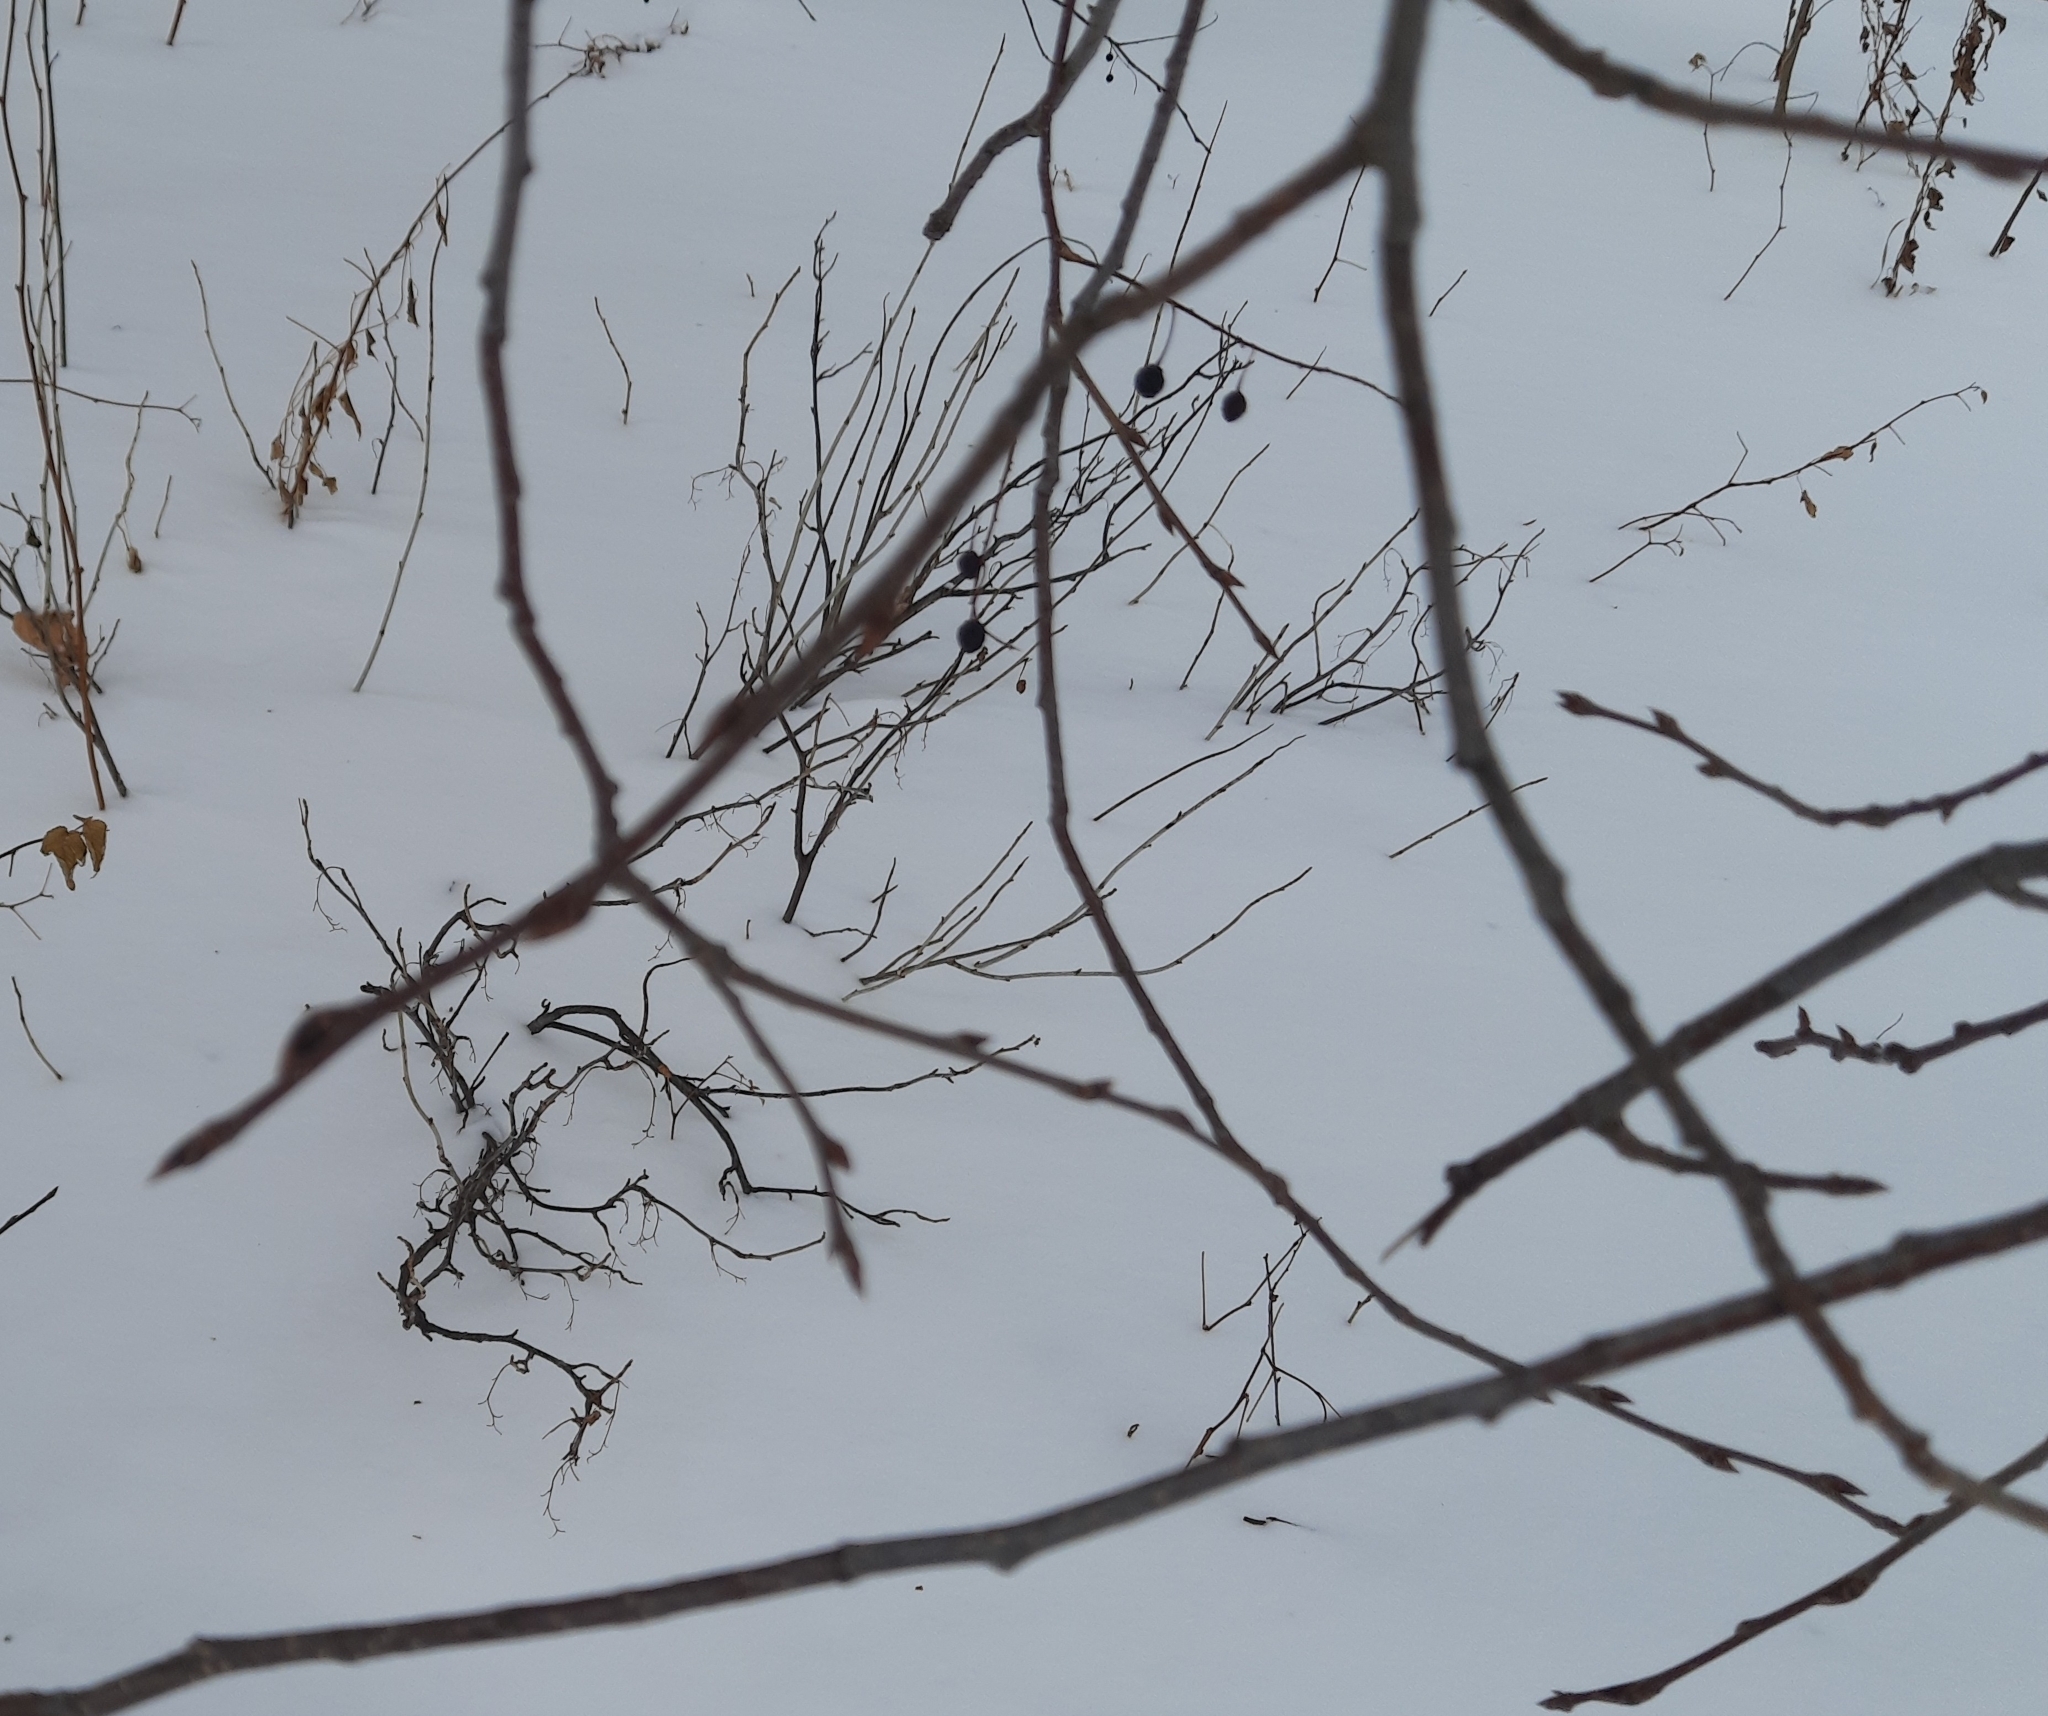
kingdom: Plantae
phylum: Tracheophyta
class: Magnoliopsida
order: Rosales
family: Rosaceae
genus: Prunus
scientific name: Prunus padus
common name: Bird cherry
